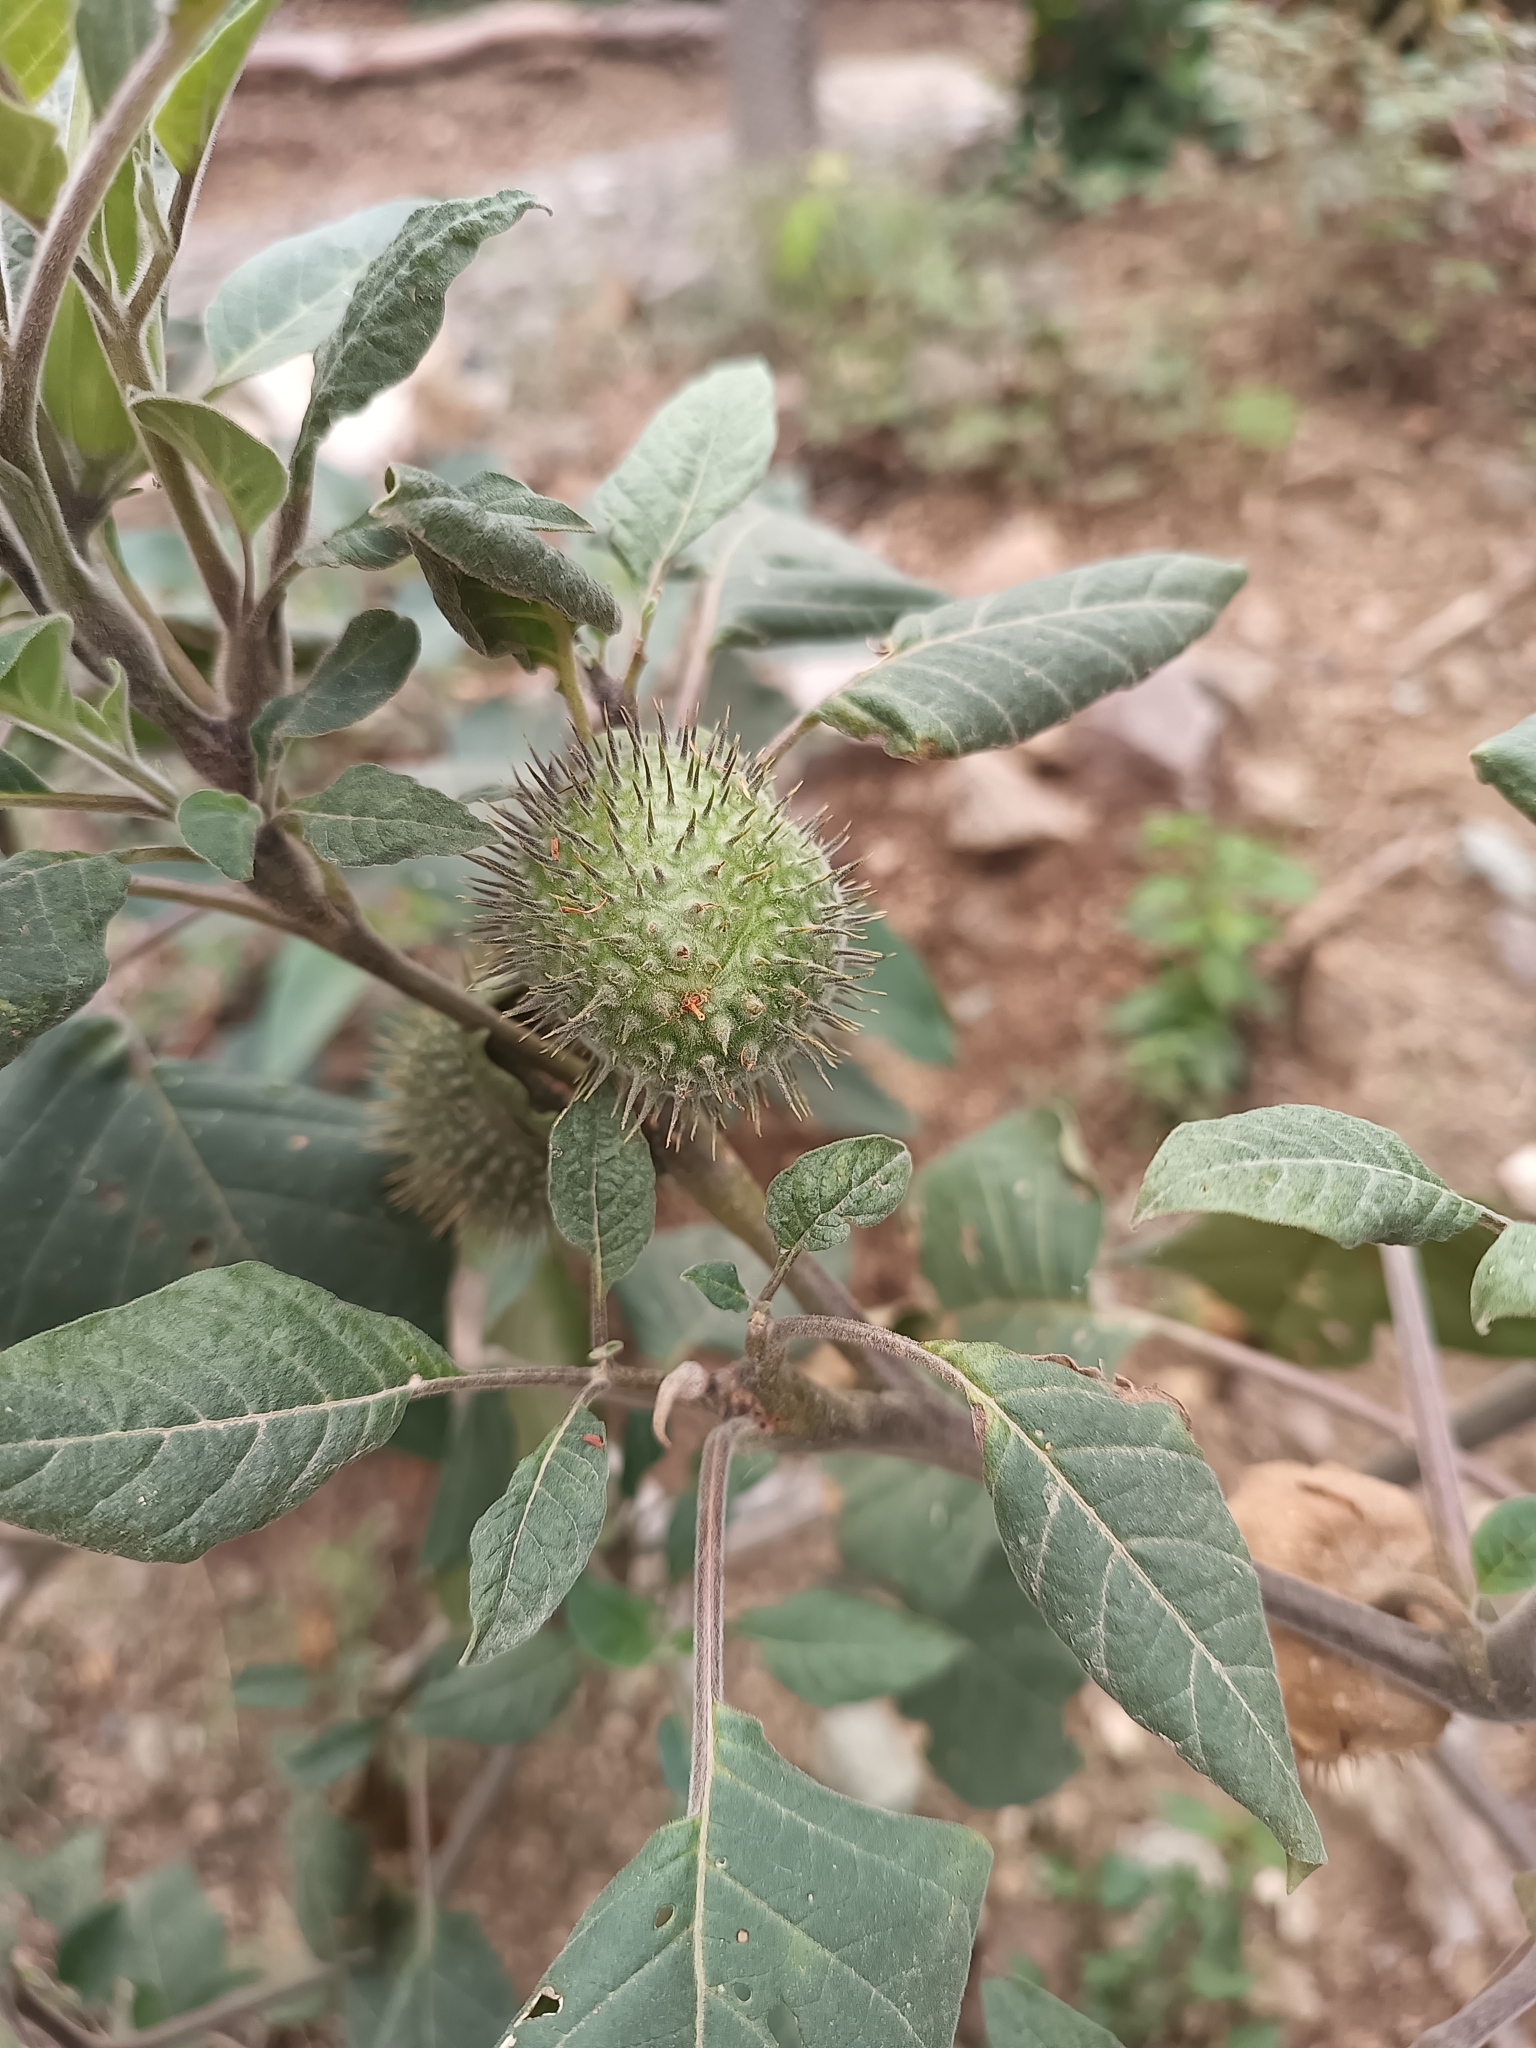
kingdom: Plantae
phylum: Tracheophyta
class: Magnoliopsida
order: Solanales
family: Solanaceae
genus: Datura
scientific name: Datura innoxia
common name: Downy thorn-apple
